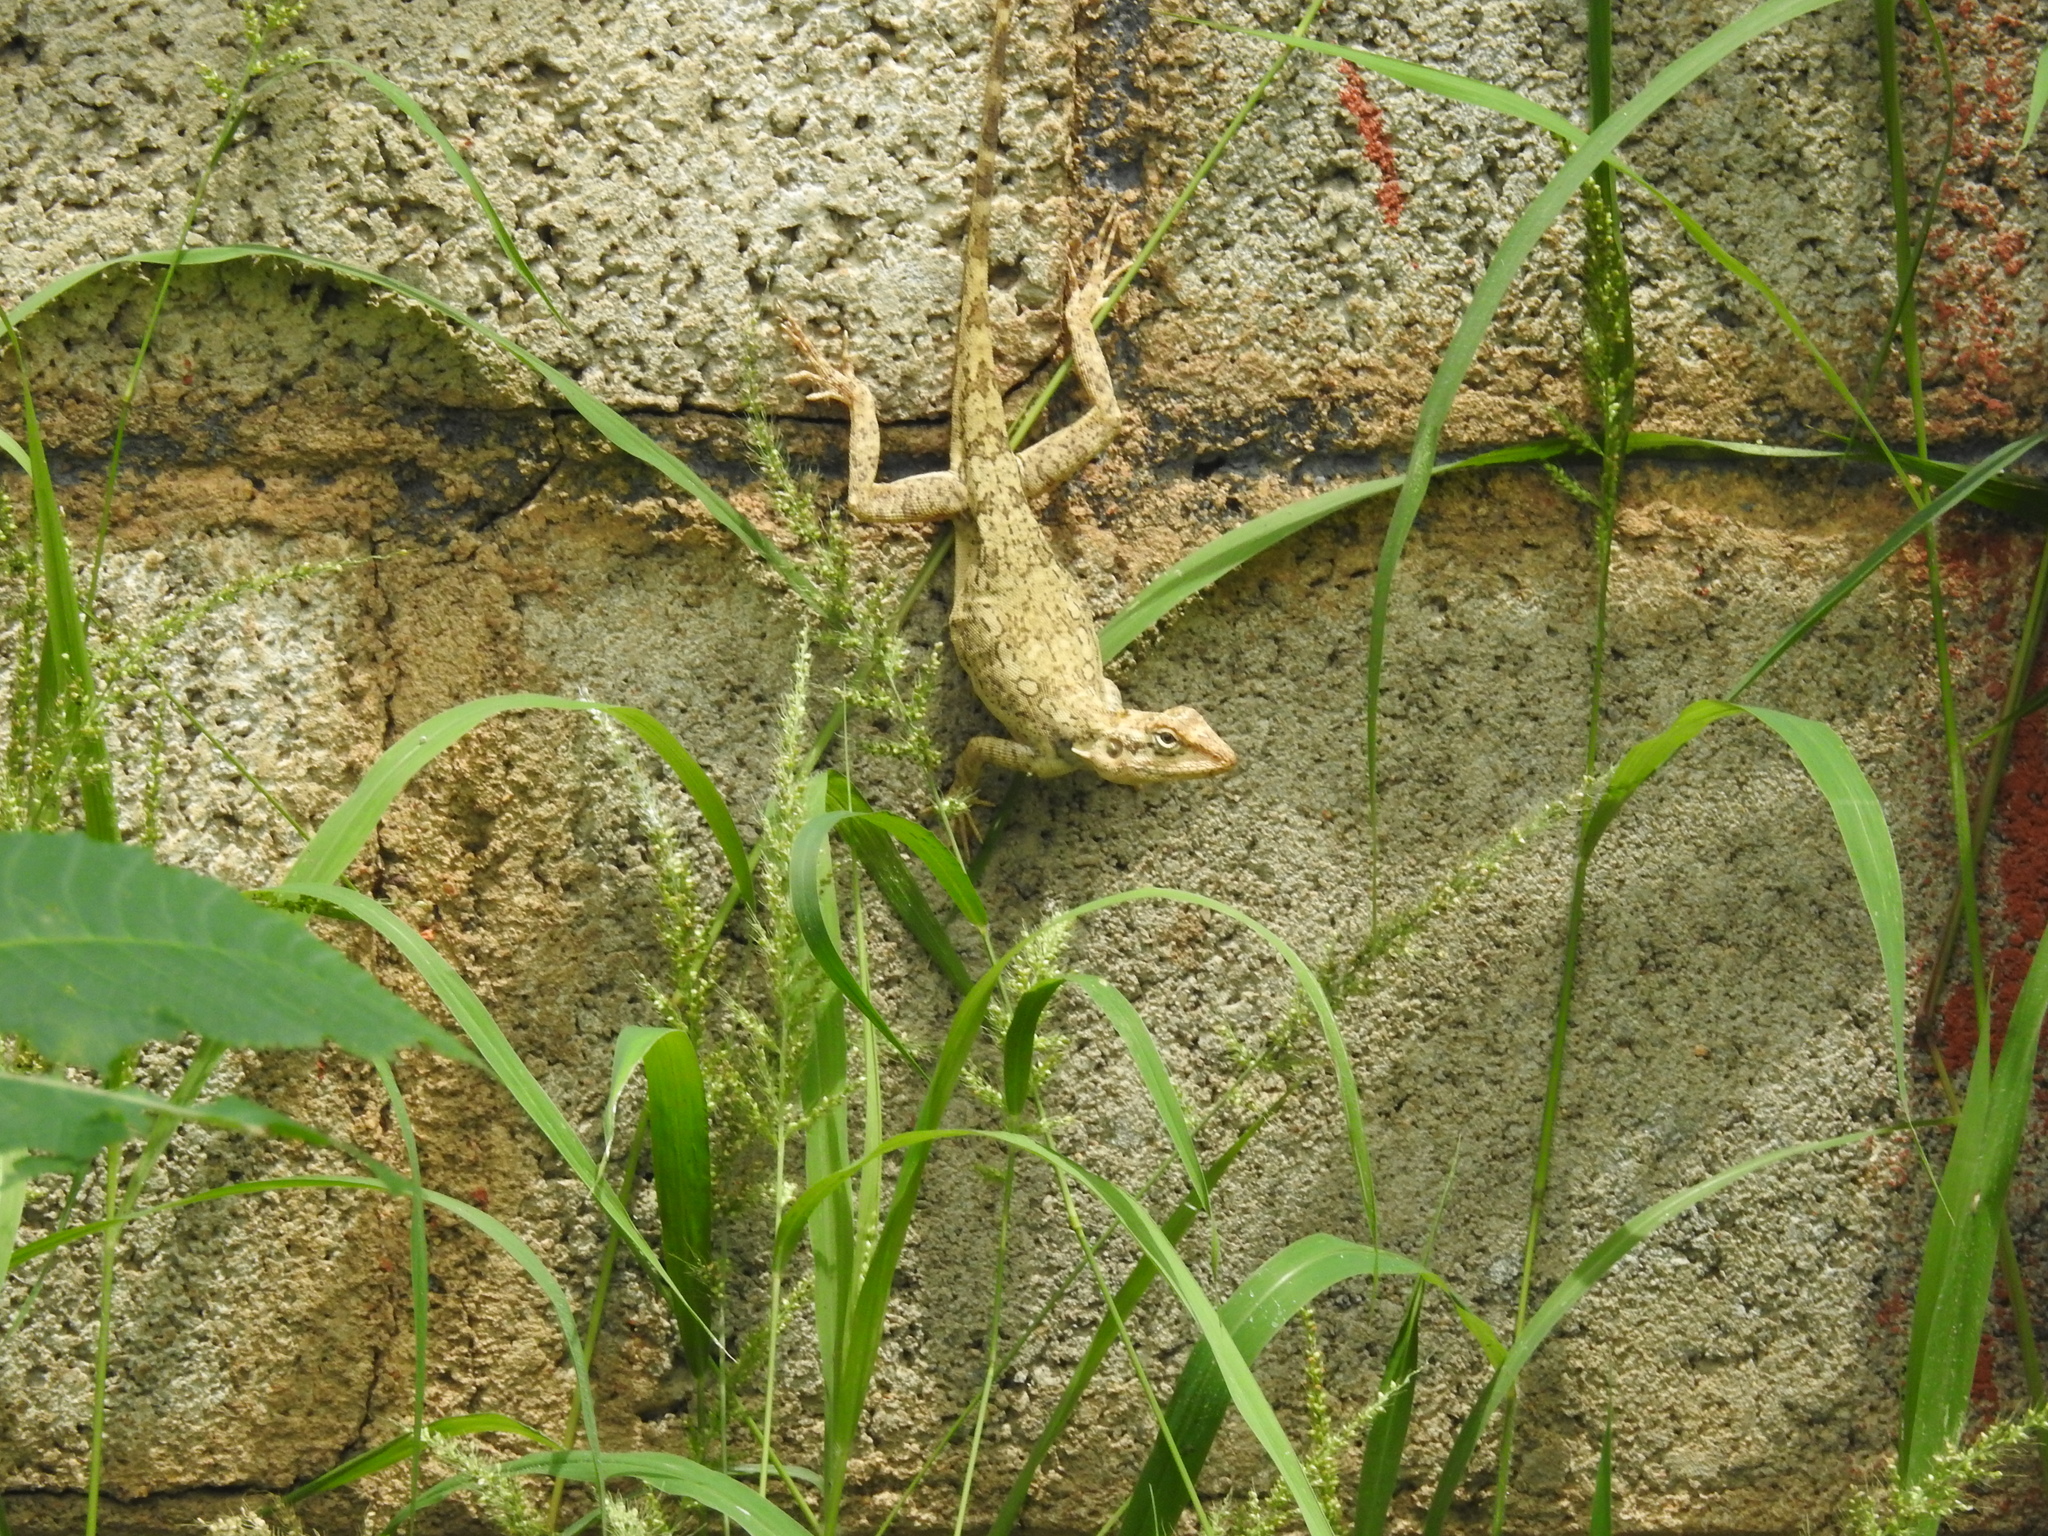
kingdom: Animalia
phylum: Chordata
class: Squamata
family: Agamidae
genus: Psammophilus
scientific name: Psammophilus dorsalis
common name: South indian rock agama
